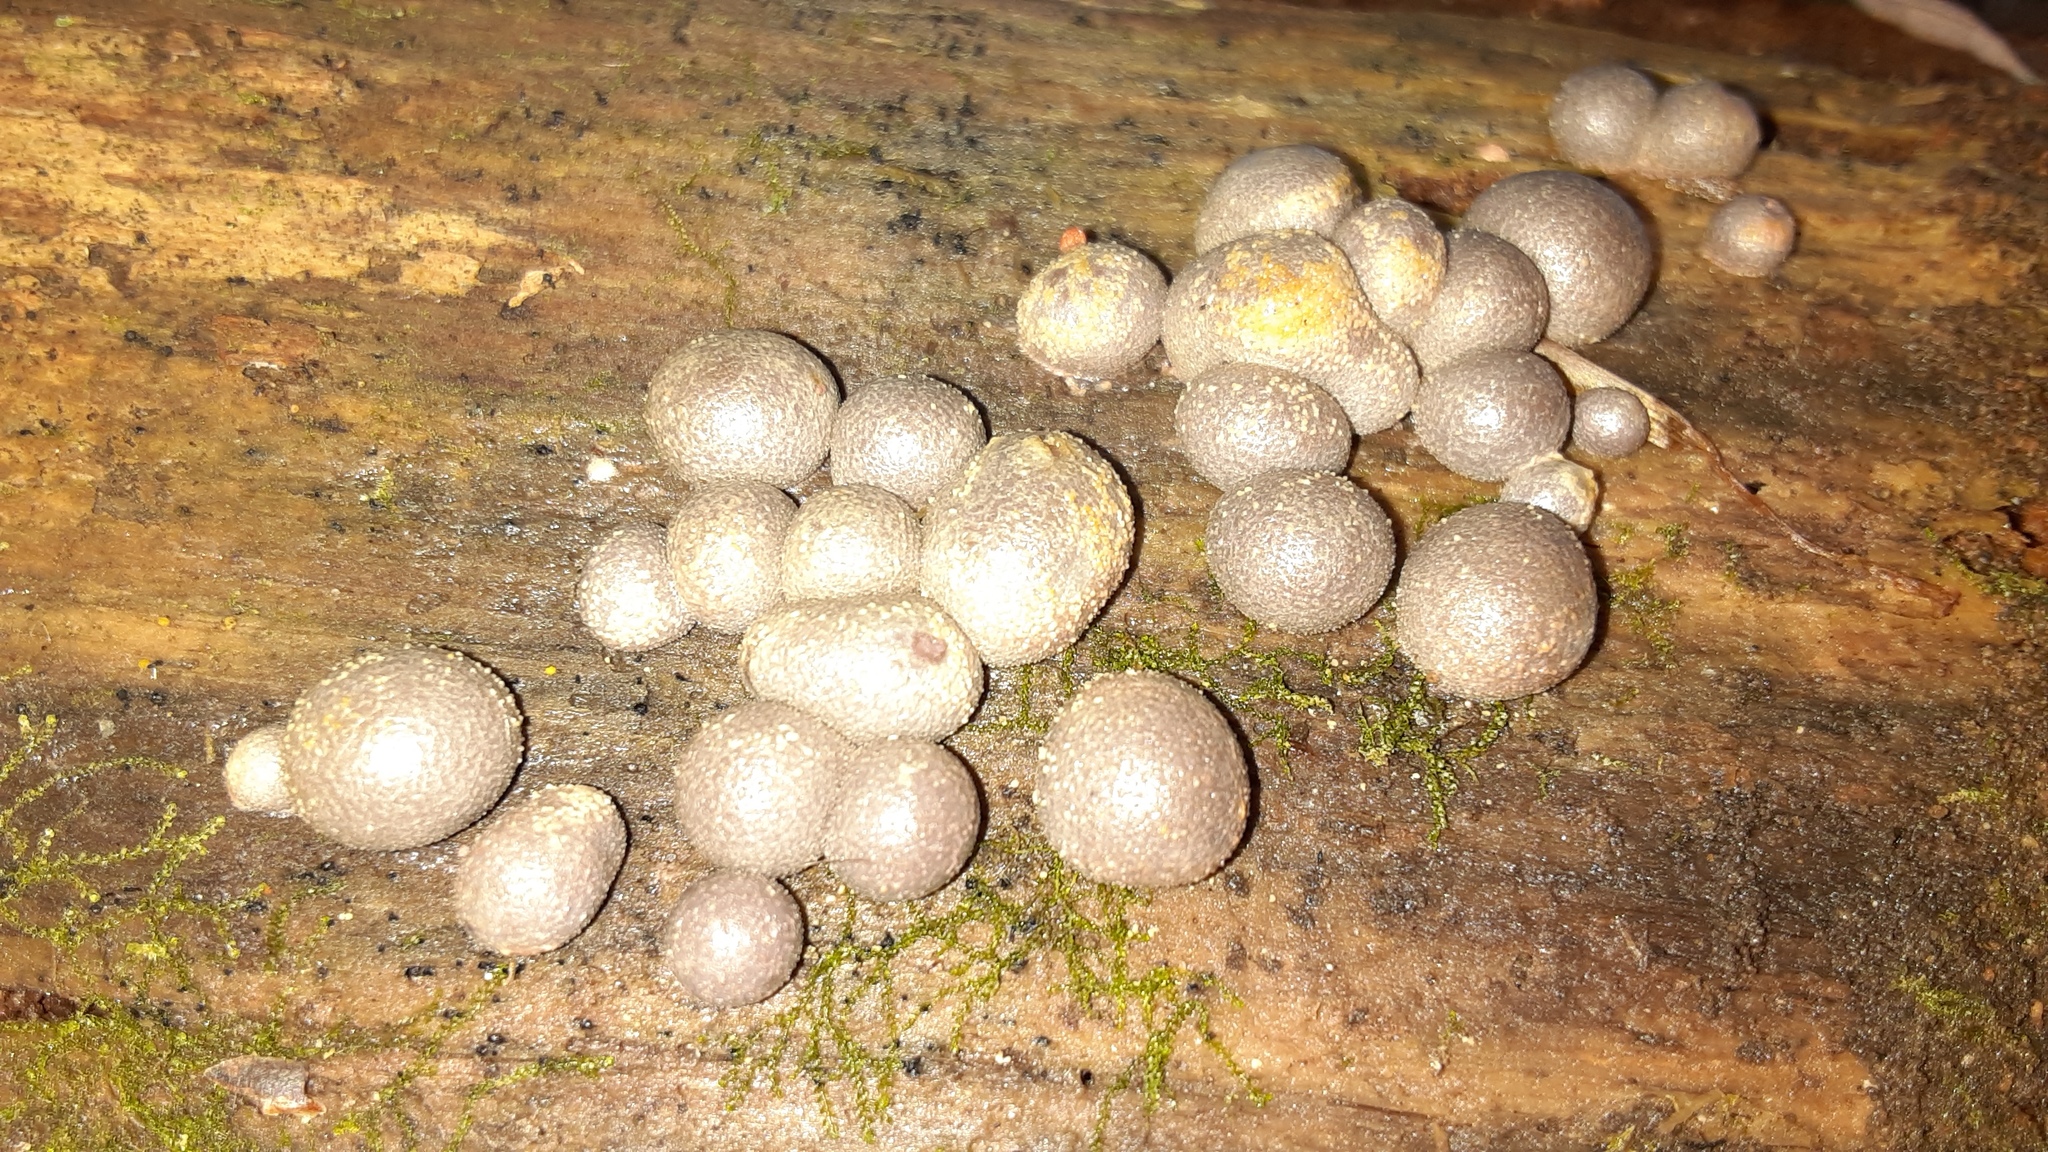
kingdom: Protozoa
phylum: Mycetozoa
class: Myxomycetes
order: Cribrariales
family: Tubiferaceae
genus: Lycogala
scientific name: Lycogala epidendrum
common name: Wolf's milk
